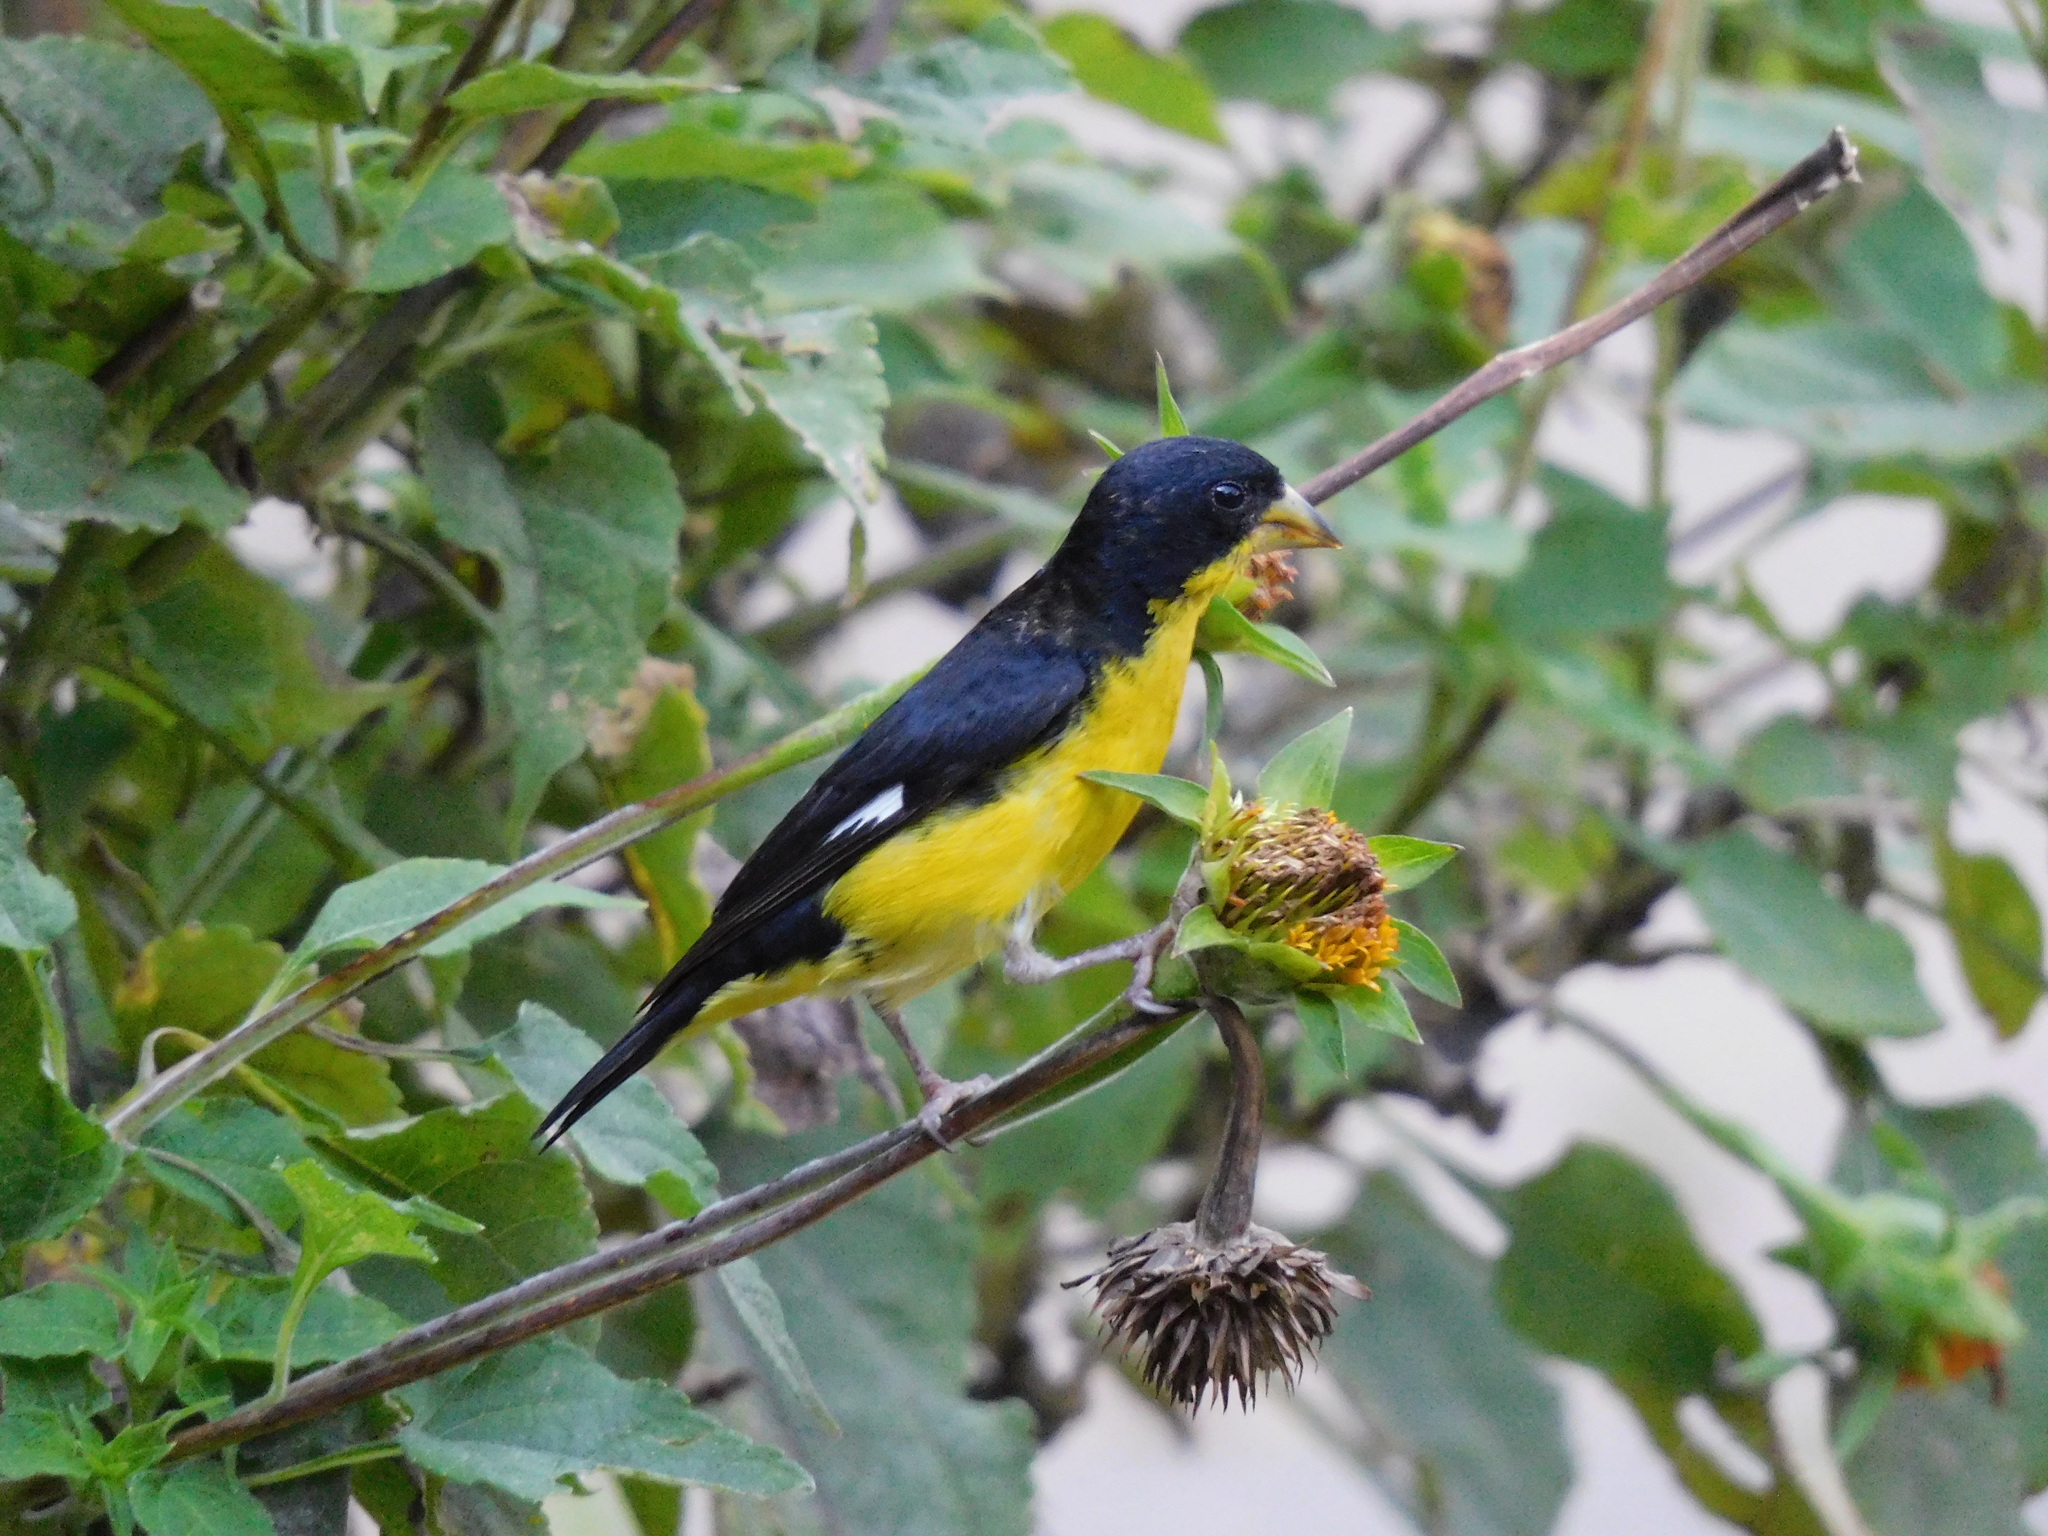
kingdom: Animalia
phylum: Chordata
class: Aves
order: Passeriformes
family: Fringillidae
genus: Spinus
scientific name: Spinus psaltria
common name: Lesser goldfinch
